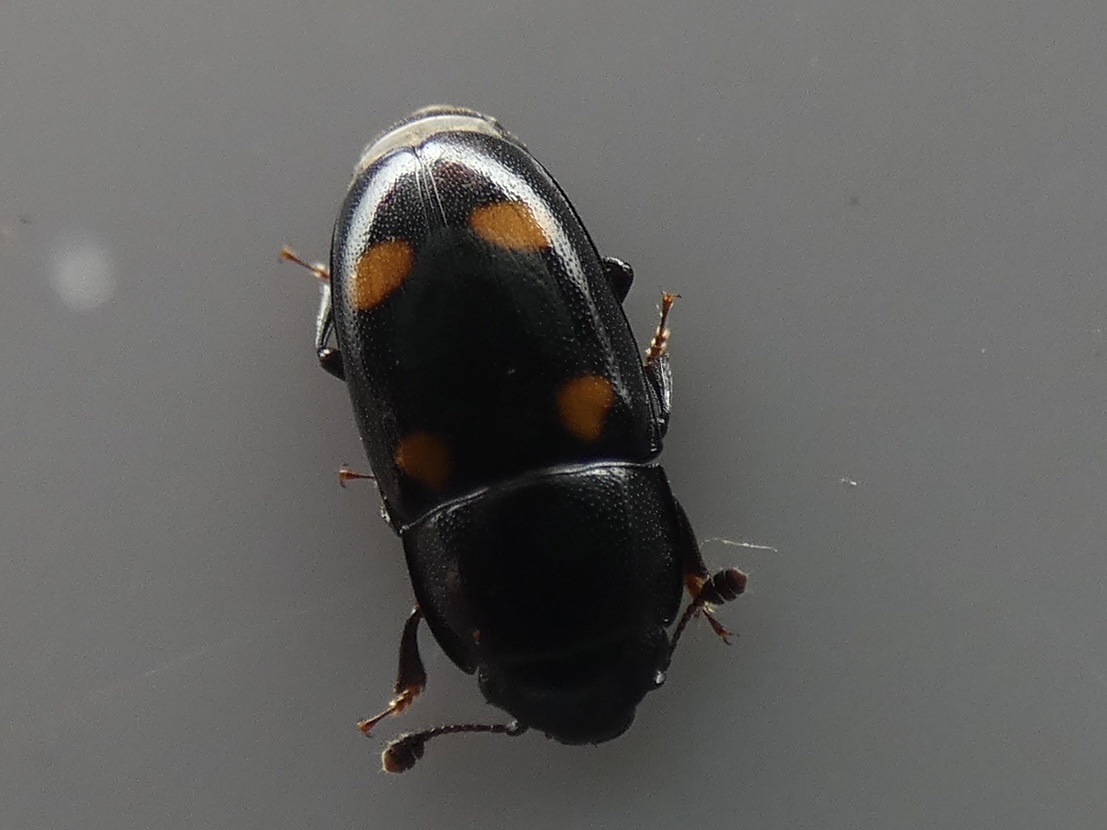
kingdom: Animalia
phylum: Arthropoda
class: Insecta
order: Coleoptera
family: Nitidulidae
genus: Glischrochilus
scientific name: Glischrochilus hortensis
